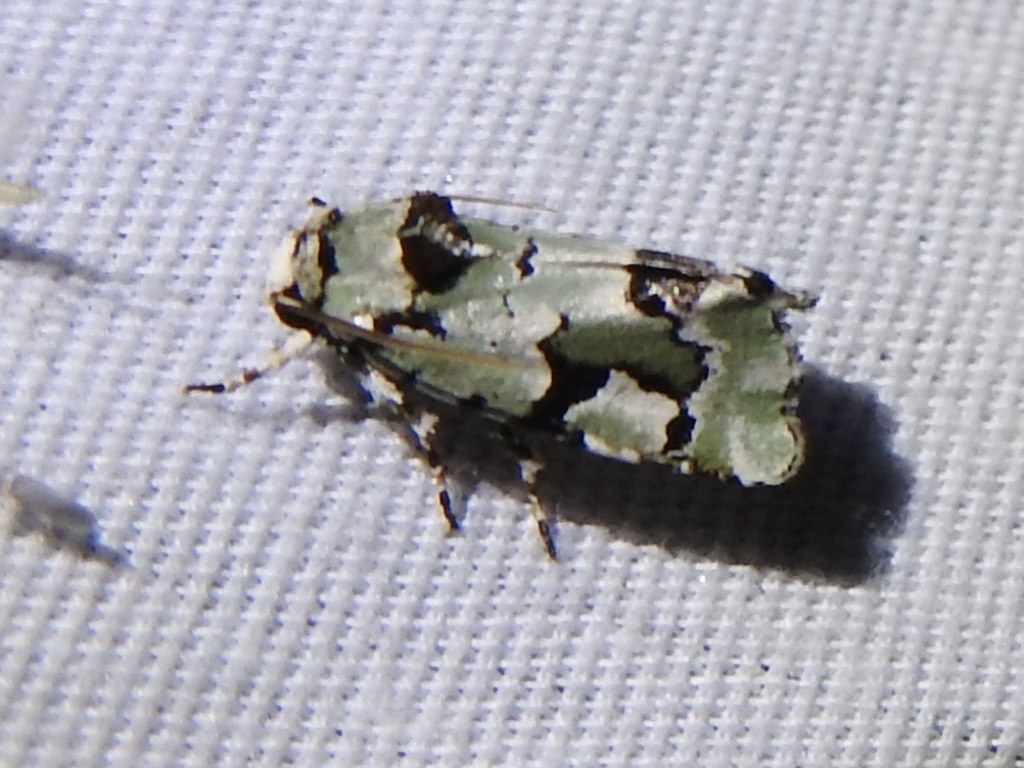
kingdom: Animalia
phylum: Arthropoda
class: Insecta
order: Lepidoptera
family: Noctuidae
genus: Emarginea
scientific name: Emarginea percara
